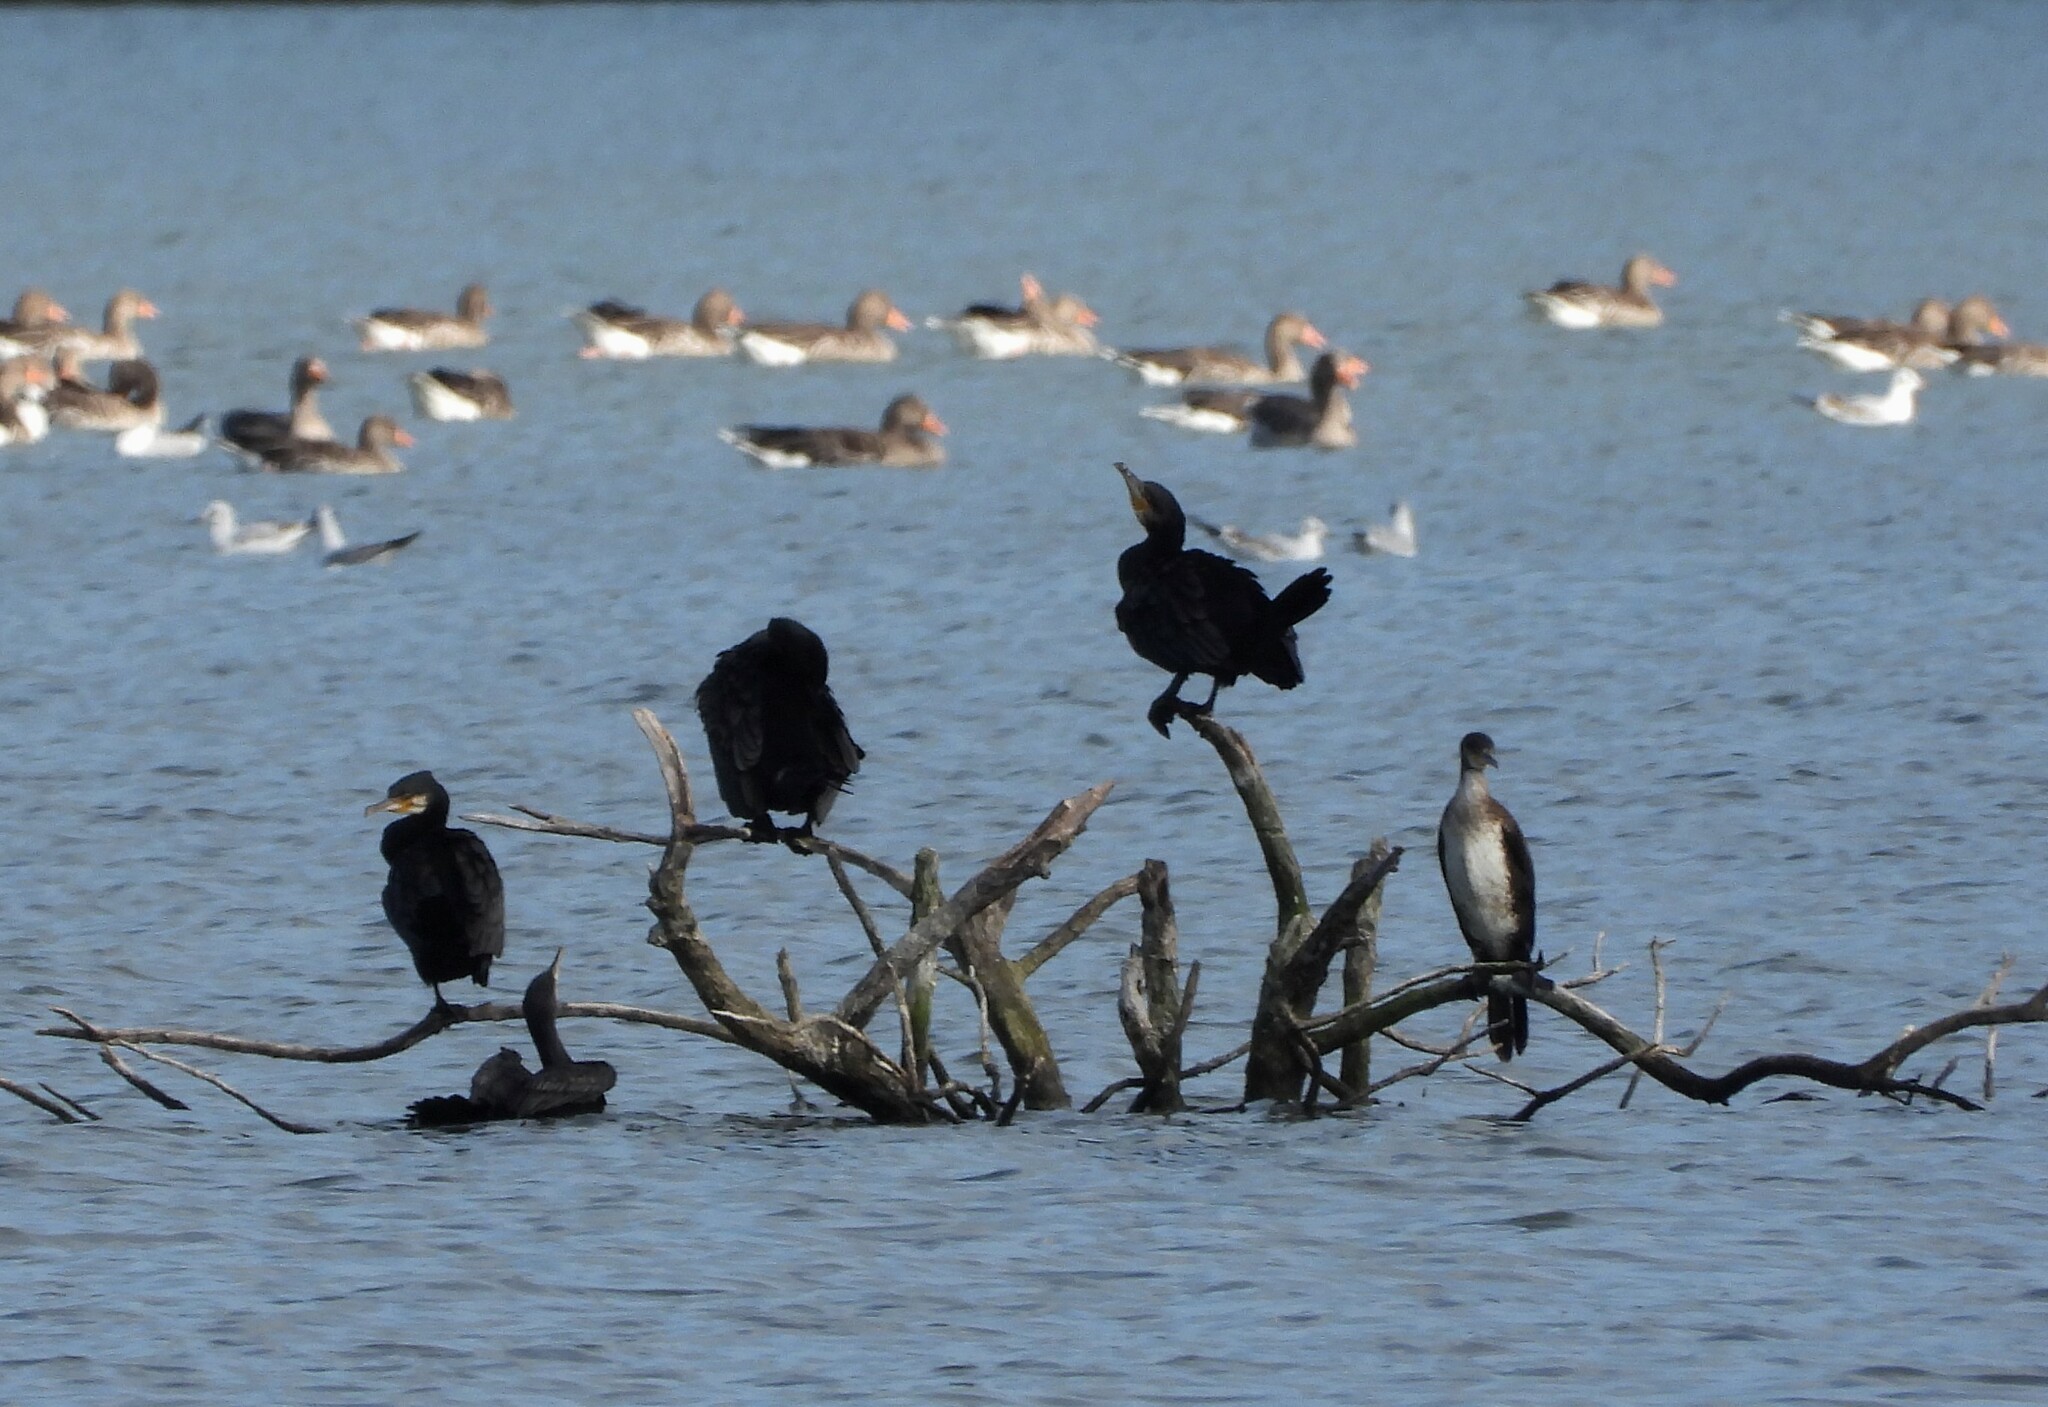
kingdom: Animalia
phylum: Chordata
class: Aves
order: Suliformes
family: Phalacrocoracidae
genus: Phalacrocorax
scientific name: Phalacrocorax carbo
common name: Great cormorant
